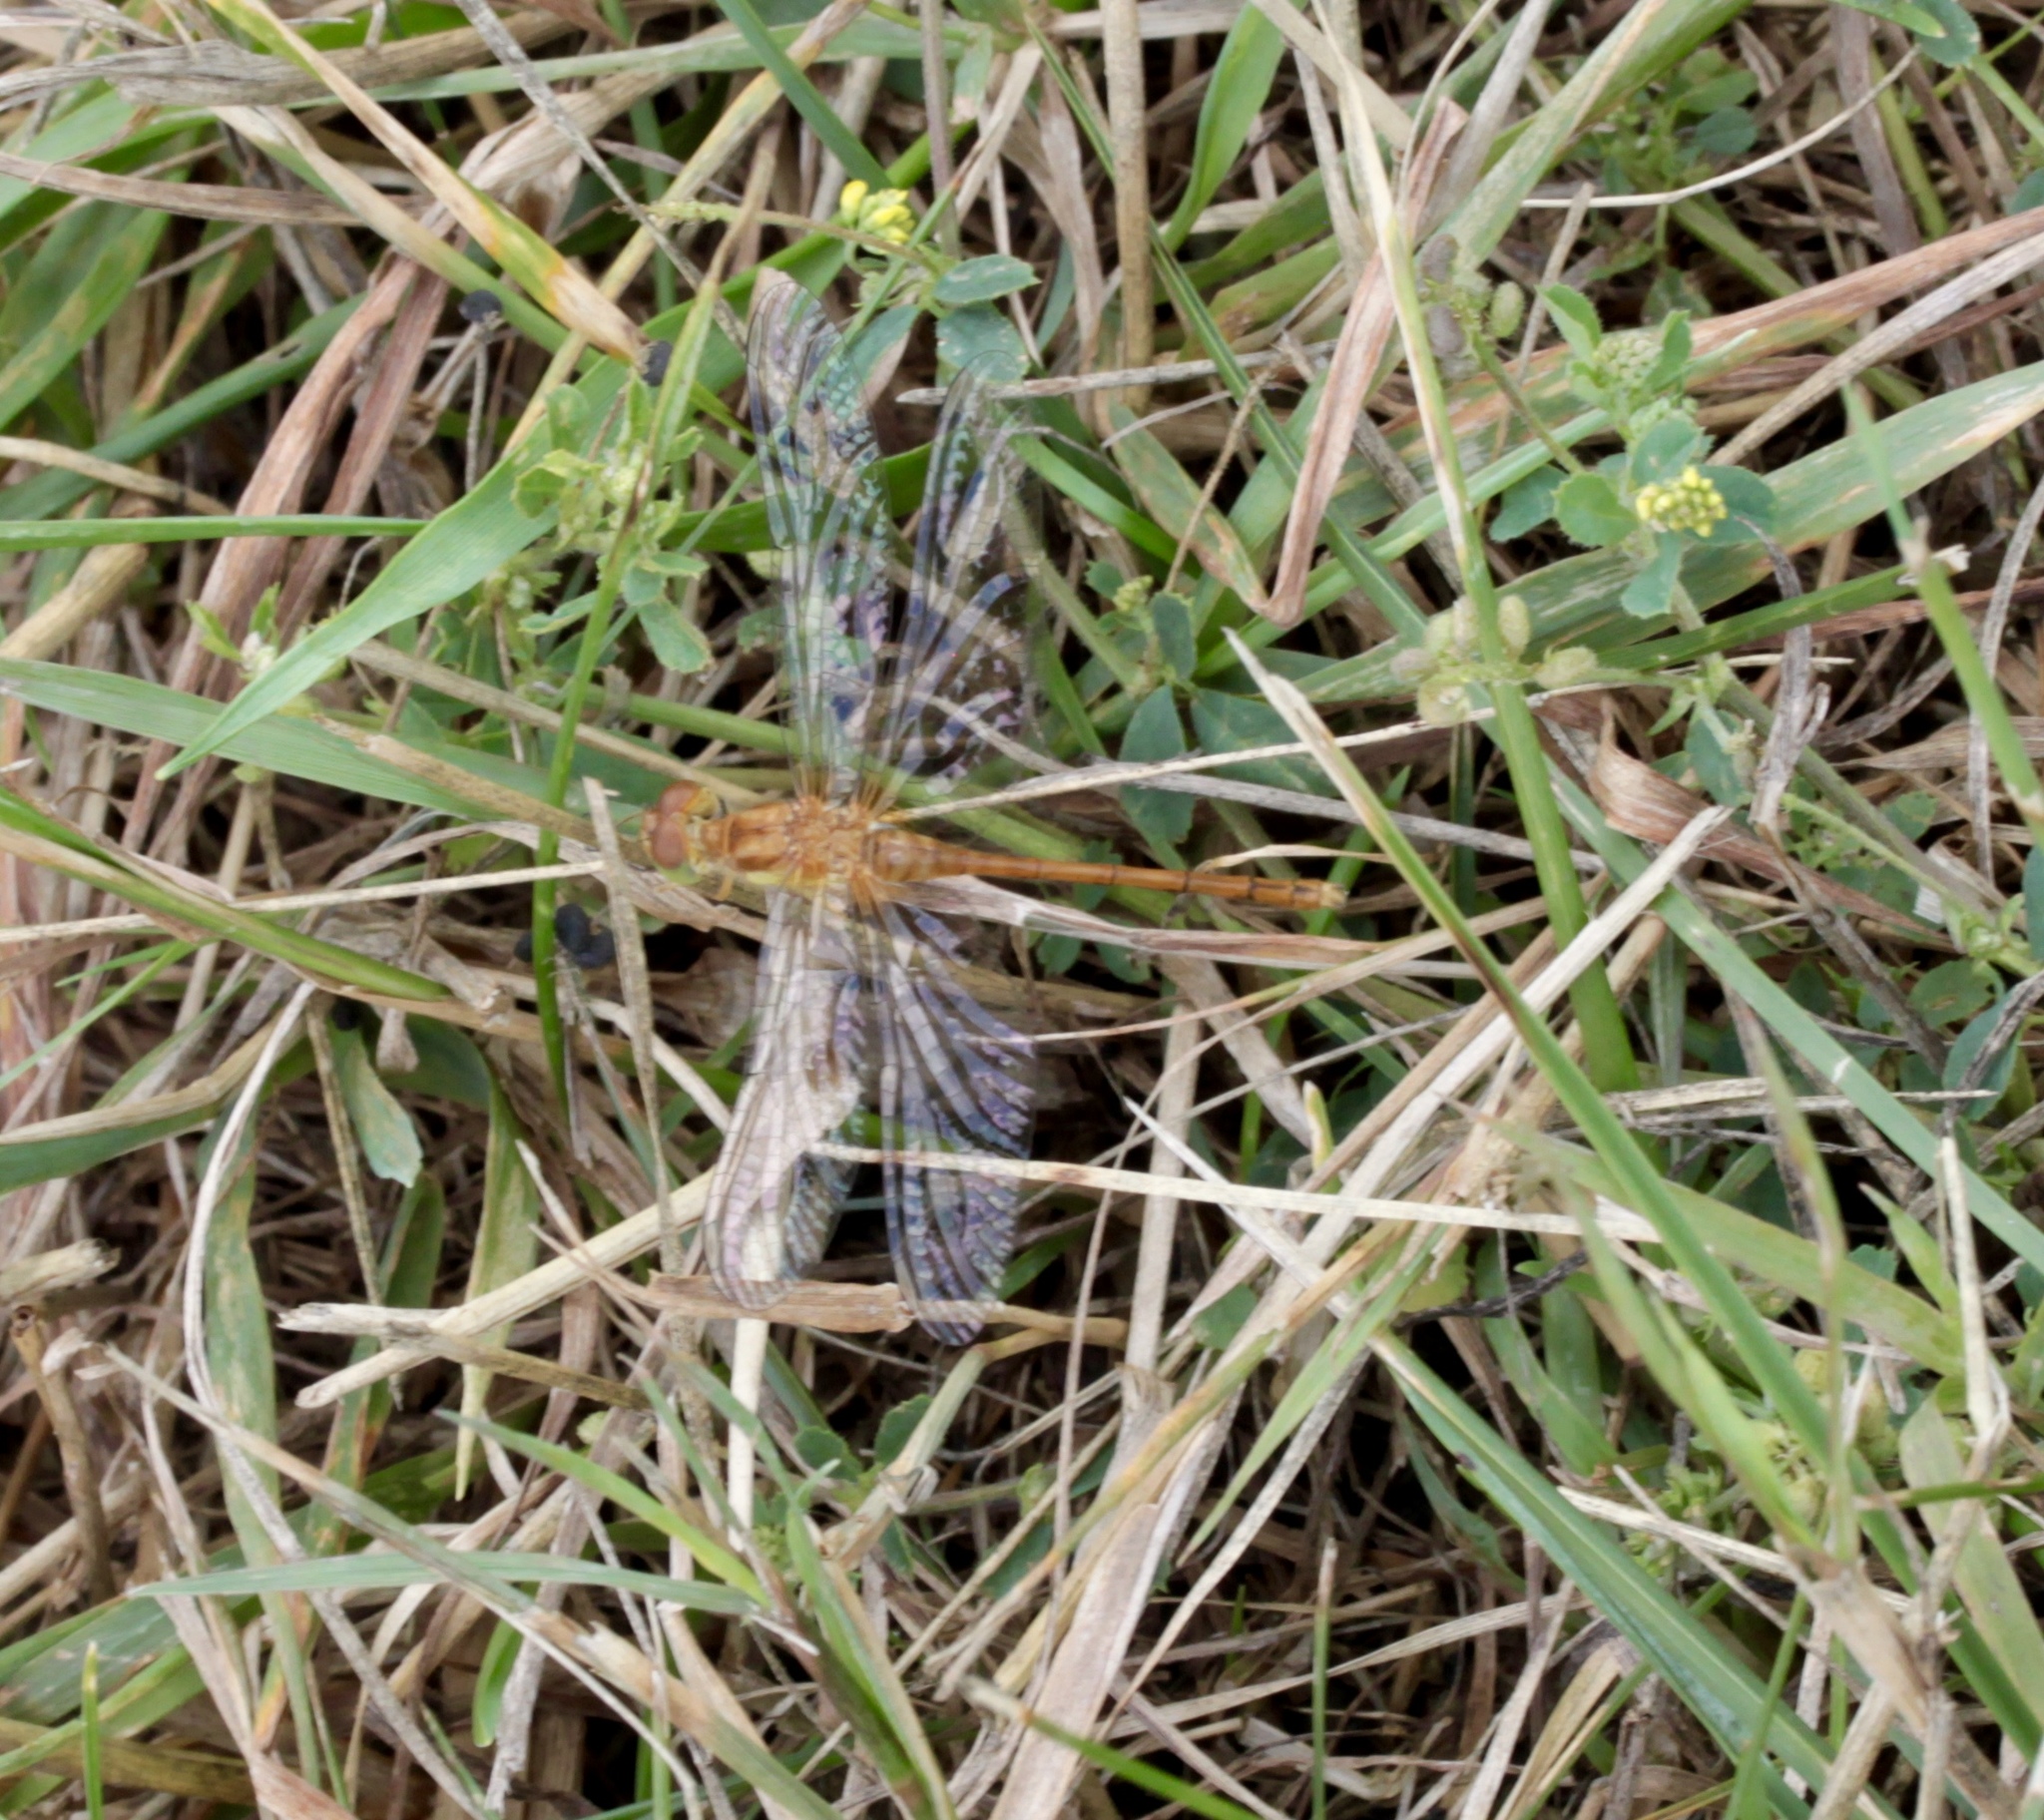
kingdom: Animalia
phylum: Arthropoda
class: Insecta
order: Odonata
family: Libellulidae
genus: Sympetrum
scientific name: Sympetrum vicinum
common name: Autumn meadowhawk
